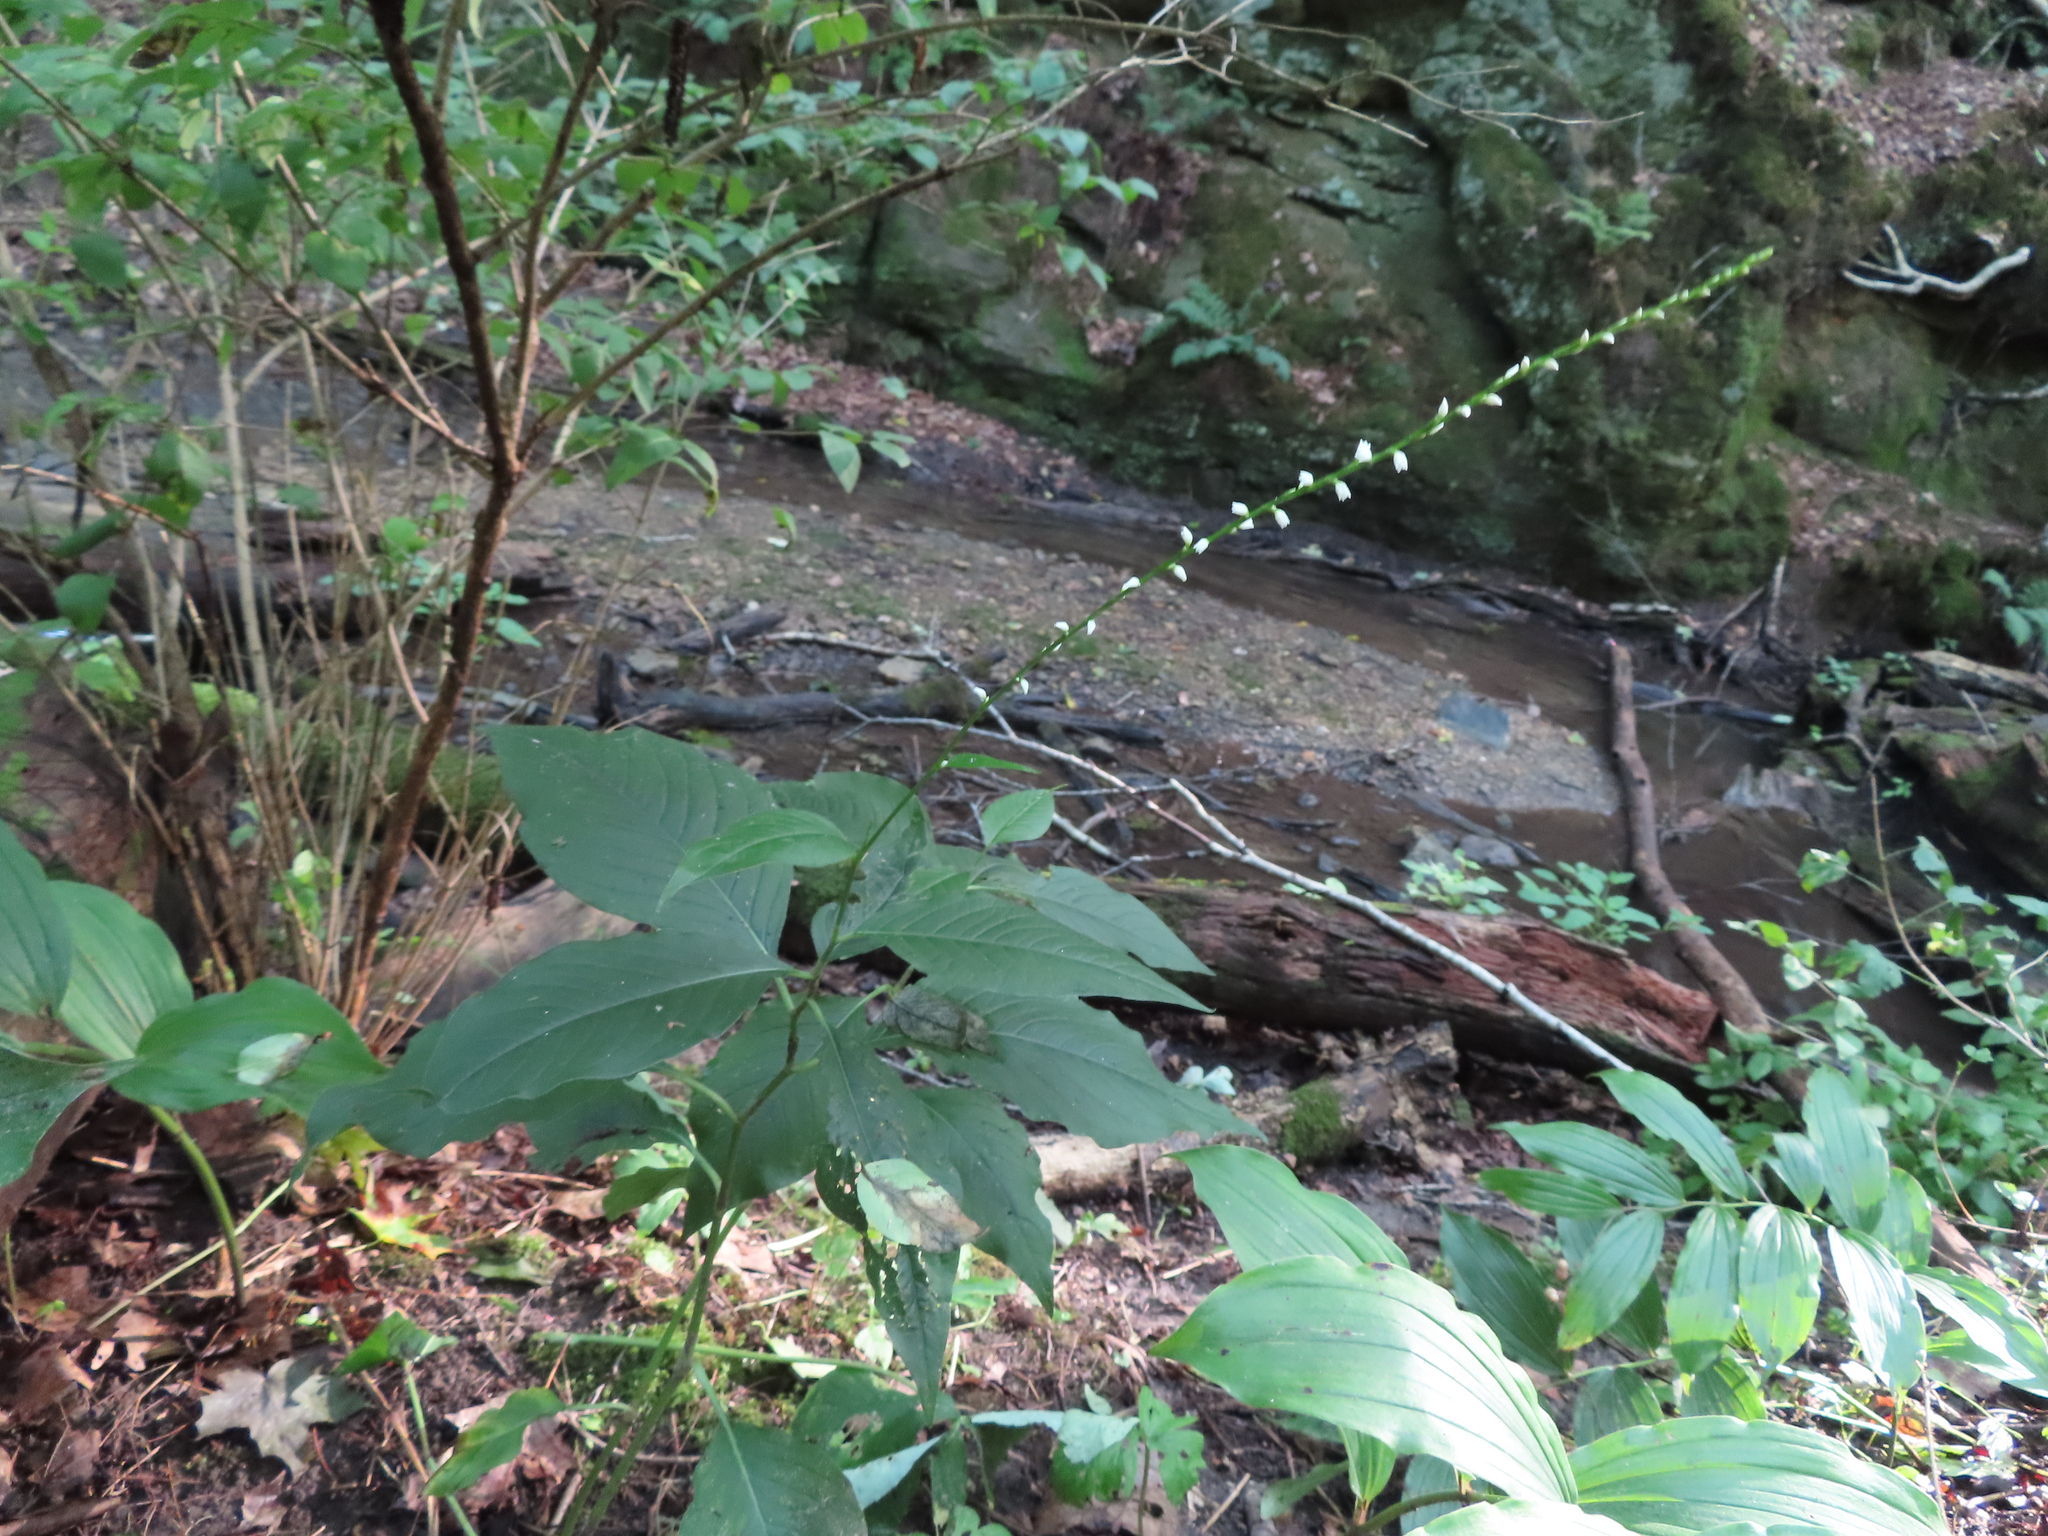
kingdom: Plantae
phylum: Tracheophyta
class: Magnoliopsida
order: Caryophyllales
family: Polygonaceae
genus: Persicaria
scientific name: Persicaria virginiana
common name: Jumpseed
